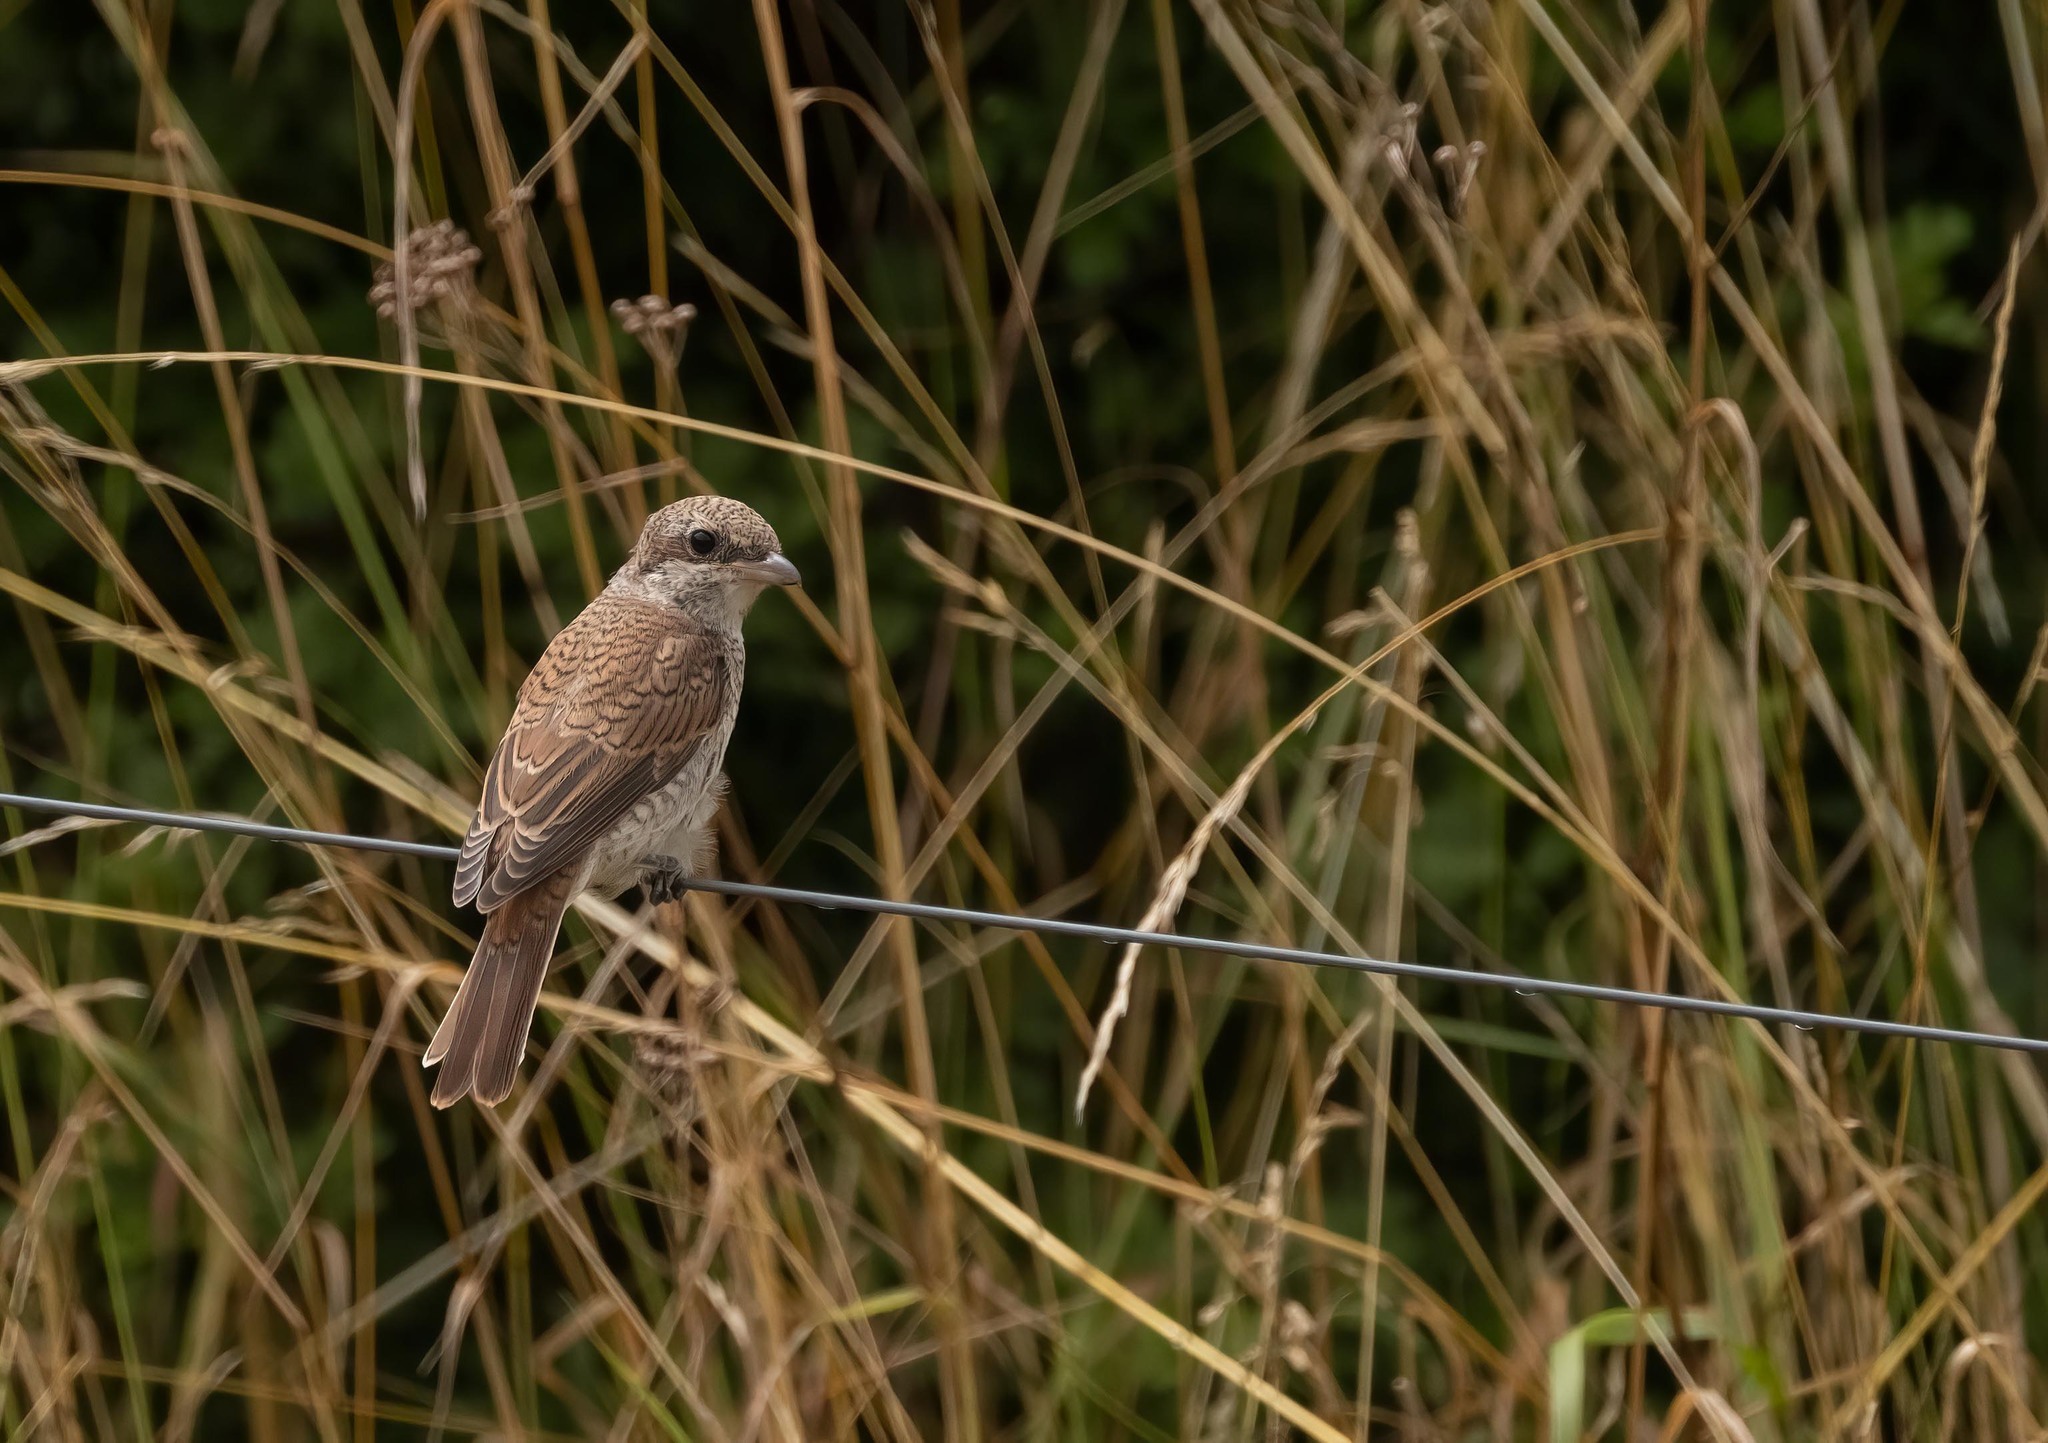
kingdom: Animalia
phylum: Chordata
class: Aves
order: Passeriformes
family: Laniidae
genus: Lanius
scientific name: Lanius collurio
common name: Red-backed shrike
